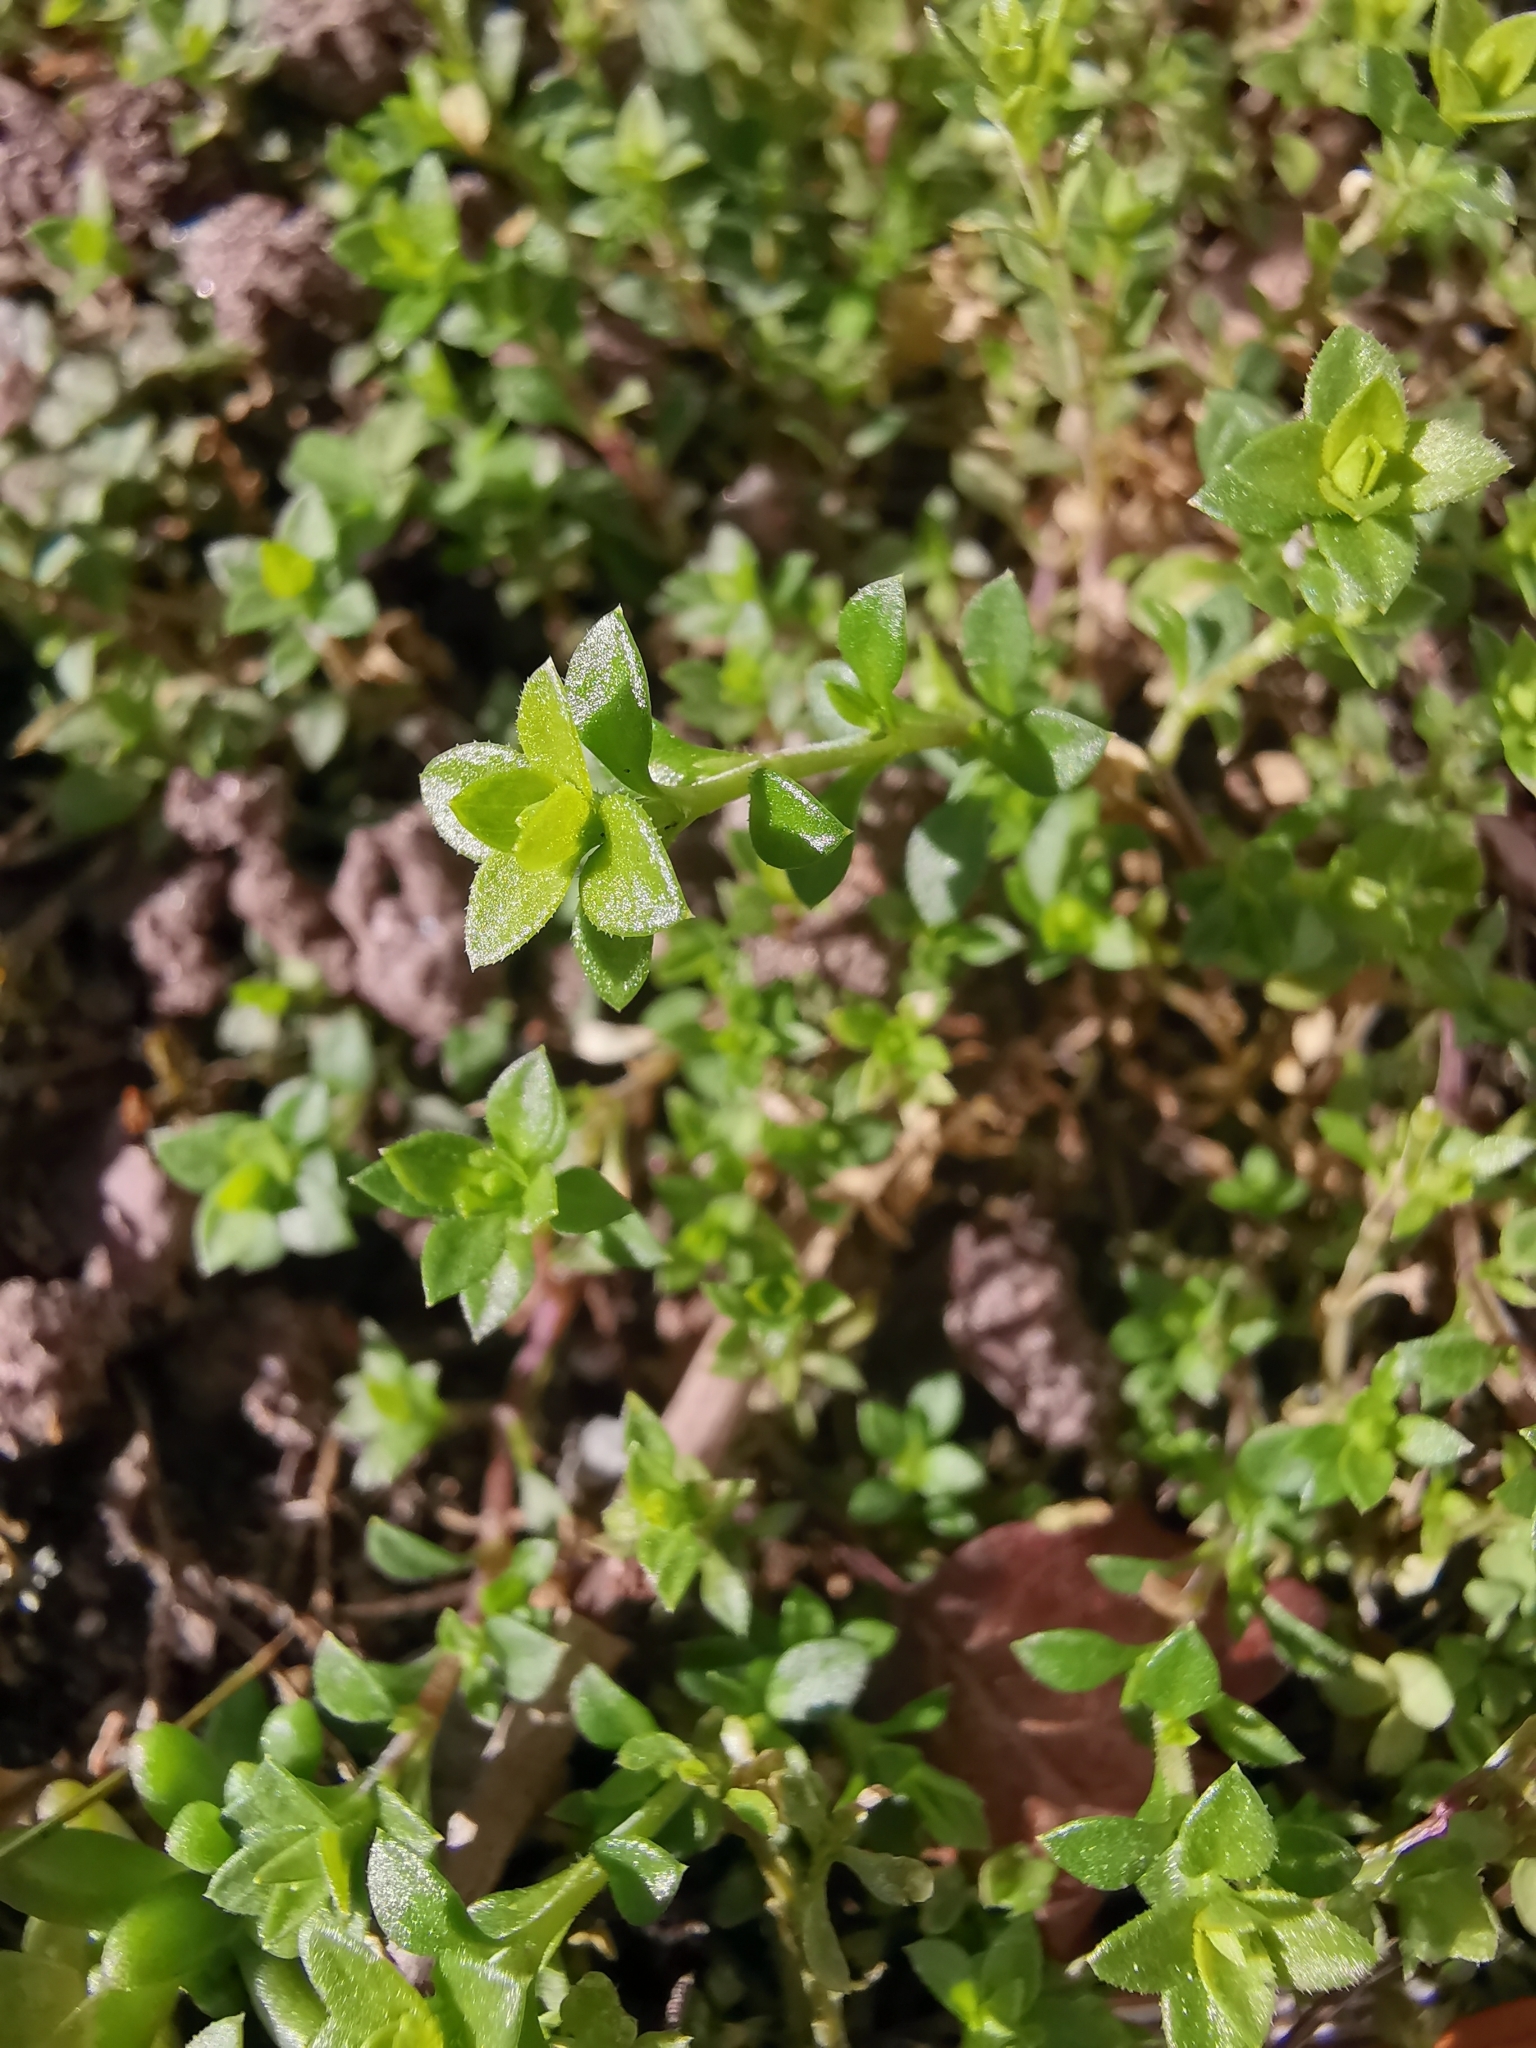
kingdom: Plantae
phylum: Tracheophyta
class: Magnoliopsida
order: Caryophyllales
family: Caryophyllaceae
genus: Arenaria
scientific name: Arenaria serpyllifolia
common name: Thyme-leaved sandwort
